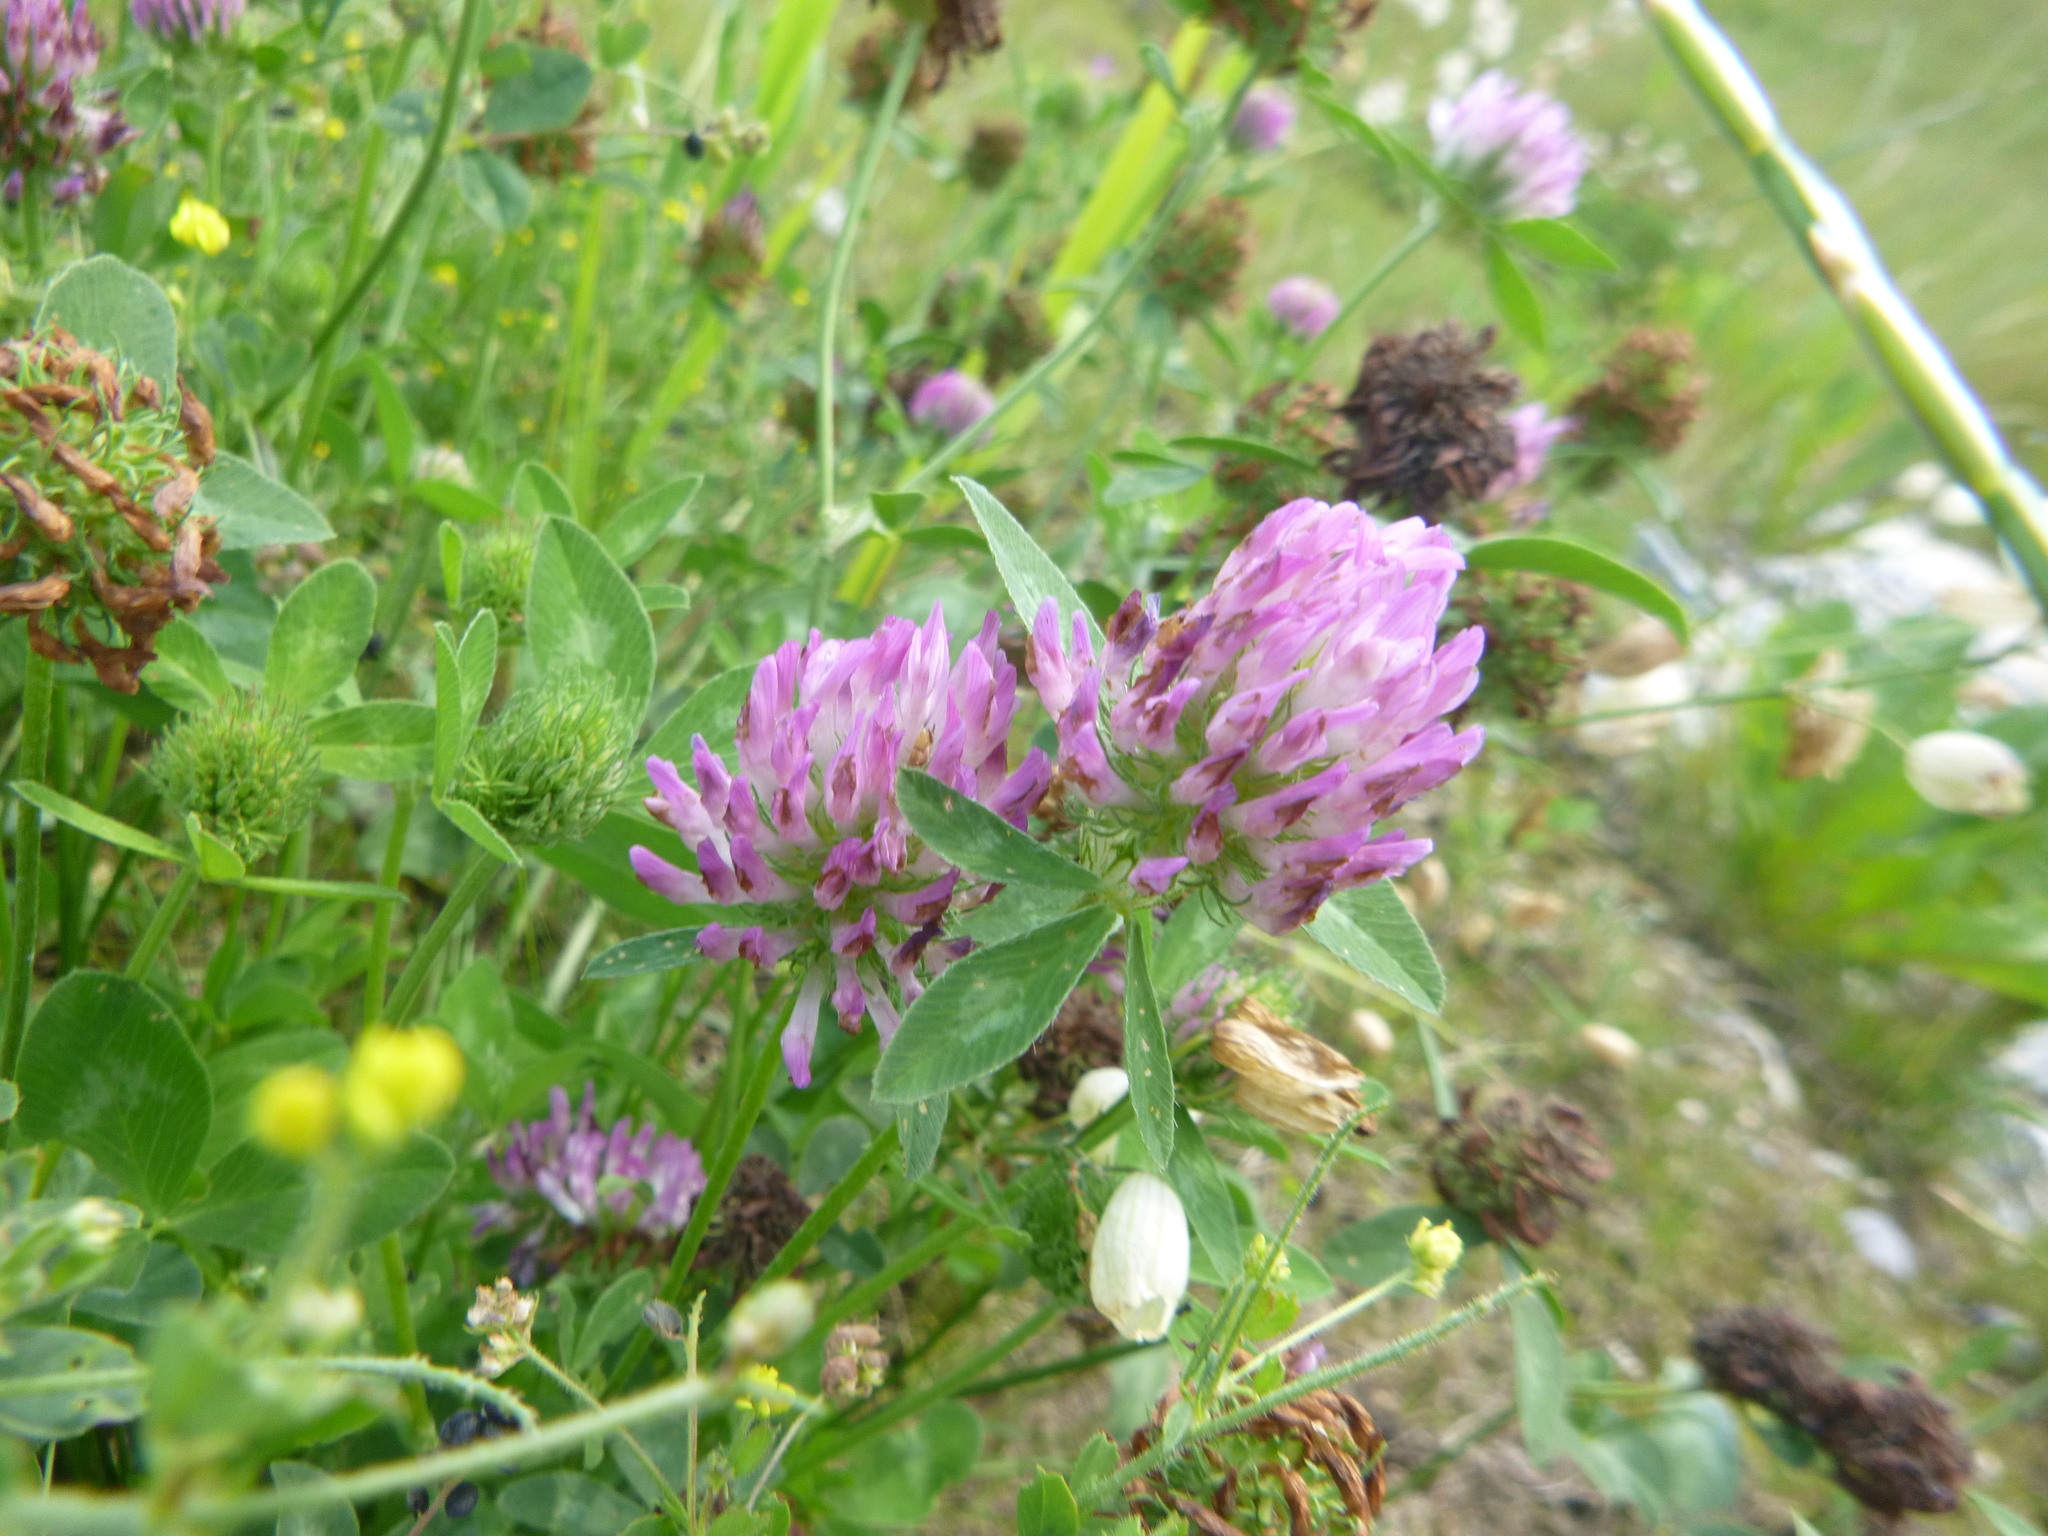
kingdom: Plantae
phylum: Tracheophyta
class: Magnoliopsida
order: Fabales
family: Fabaceae
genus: Trifolium
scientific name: Trifolium pratense
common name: Red clover
